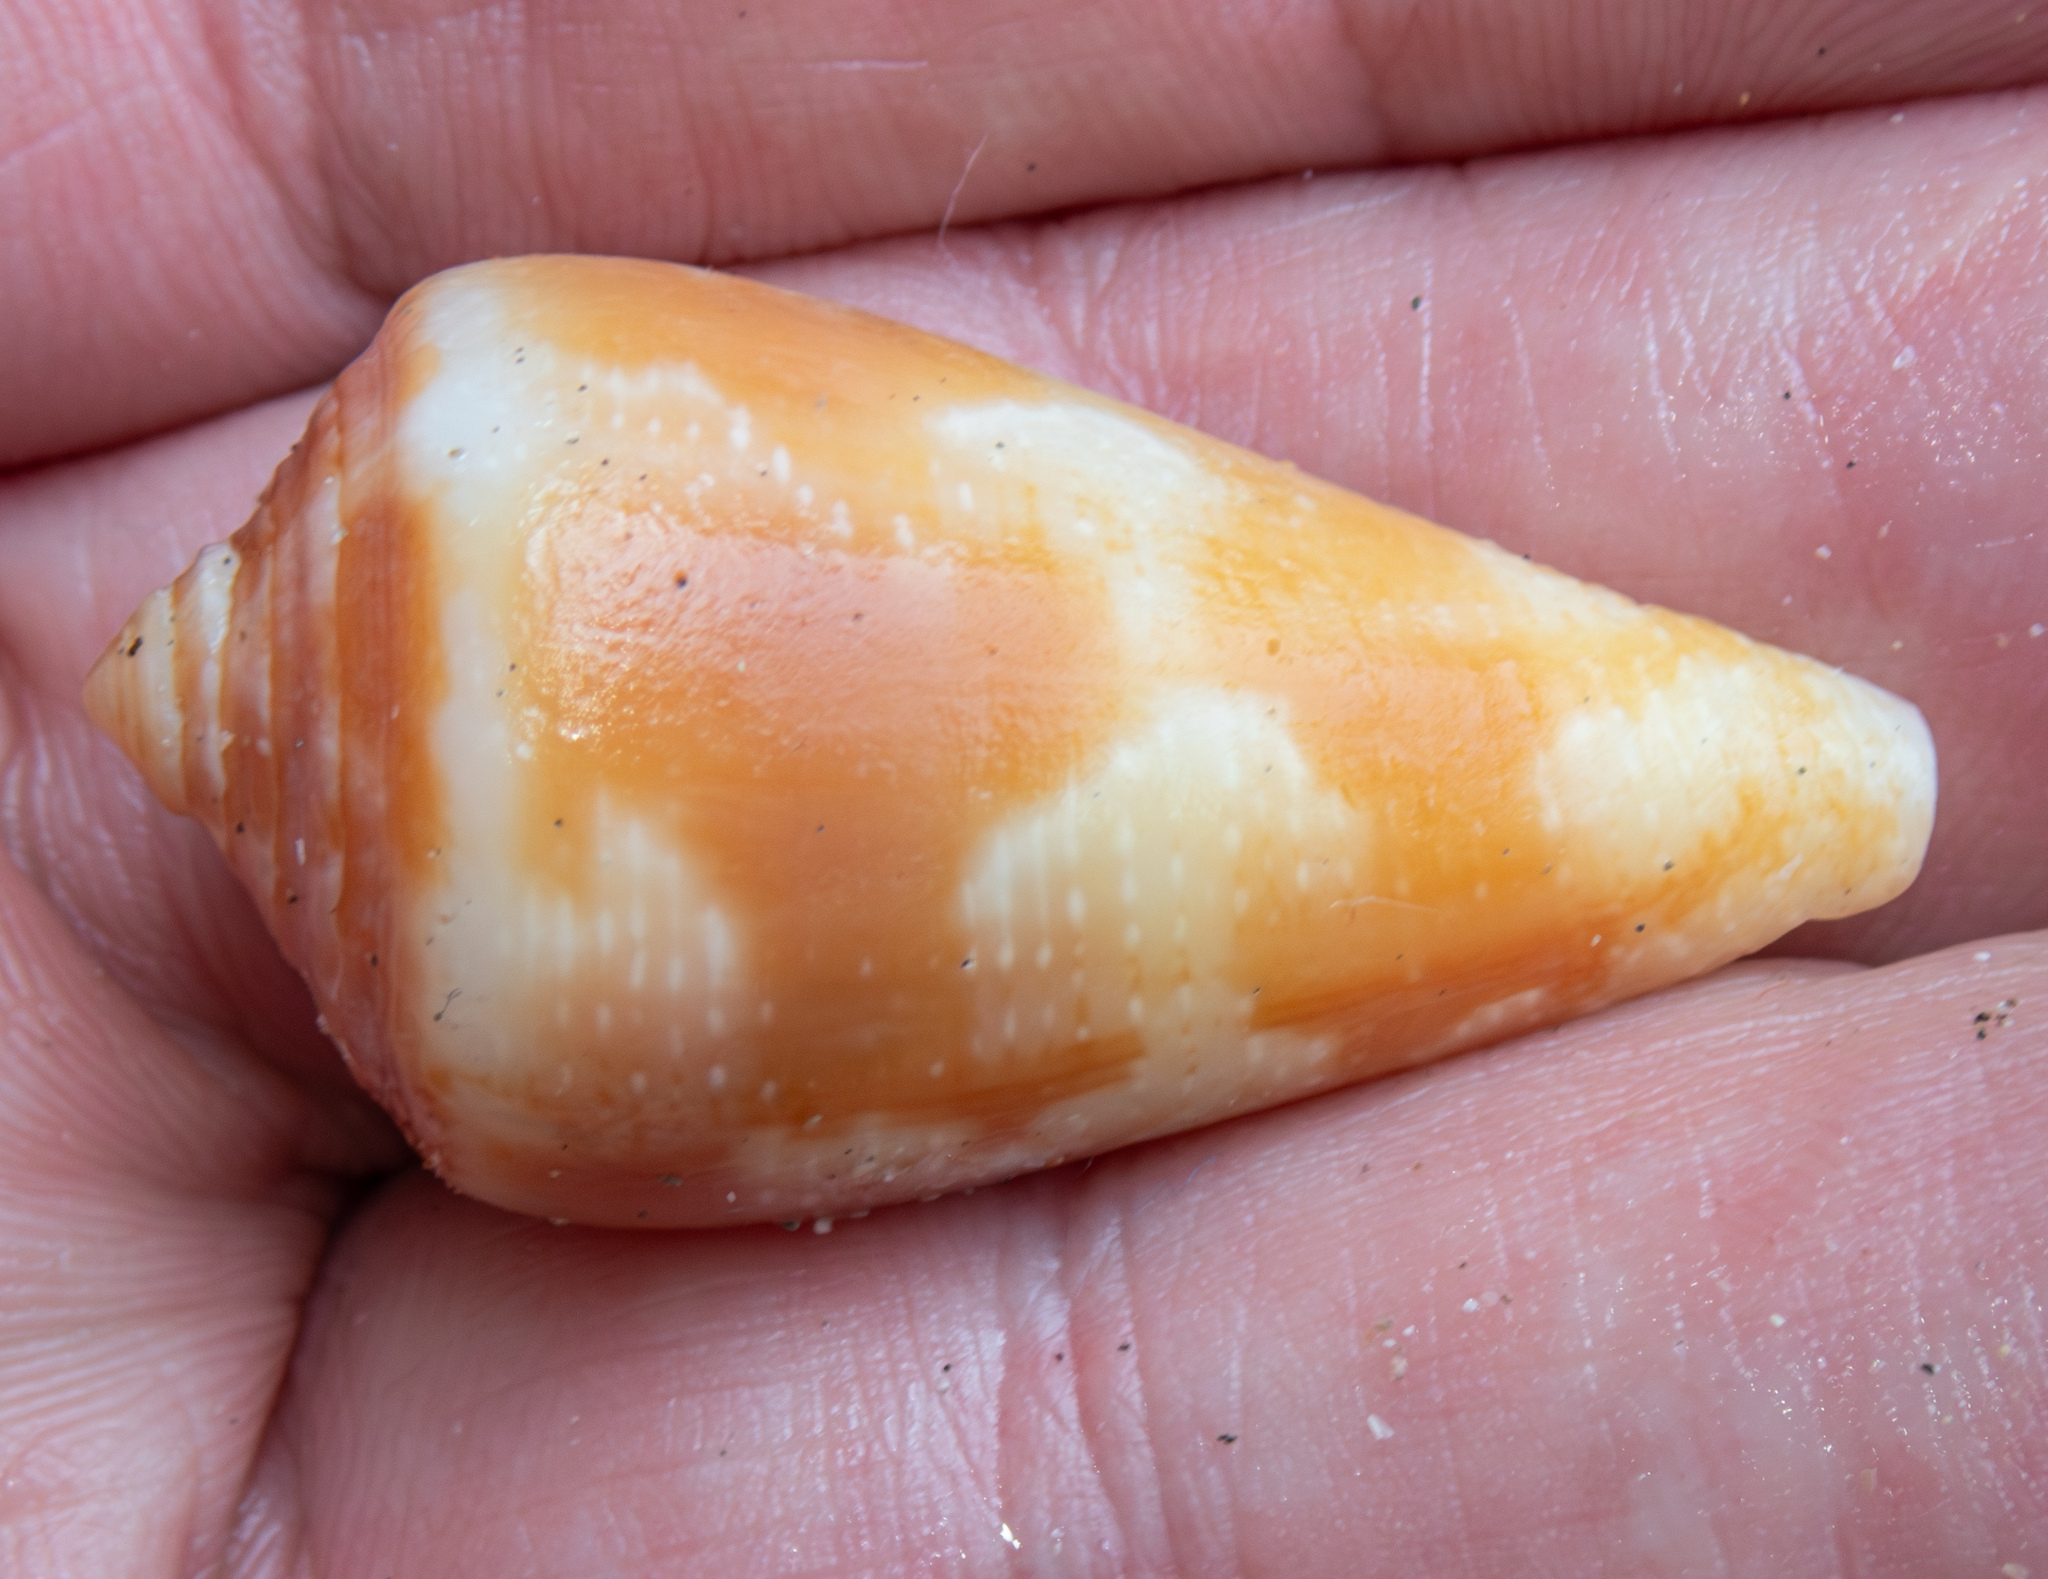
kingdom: Animalia
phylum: Mollusca
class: Gastropoda
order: Neogastropoda
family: Conidae
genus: Conus
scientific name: Conus purpurascens
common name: Purple cone
